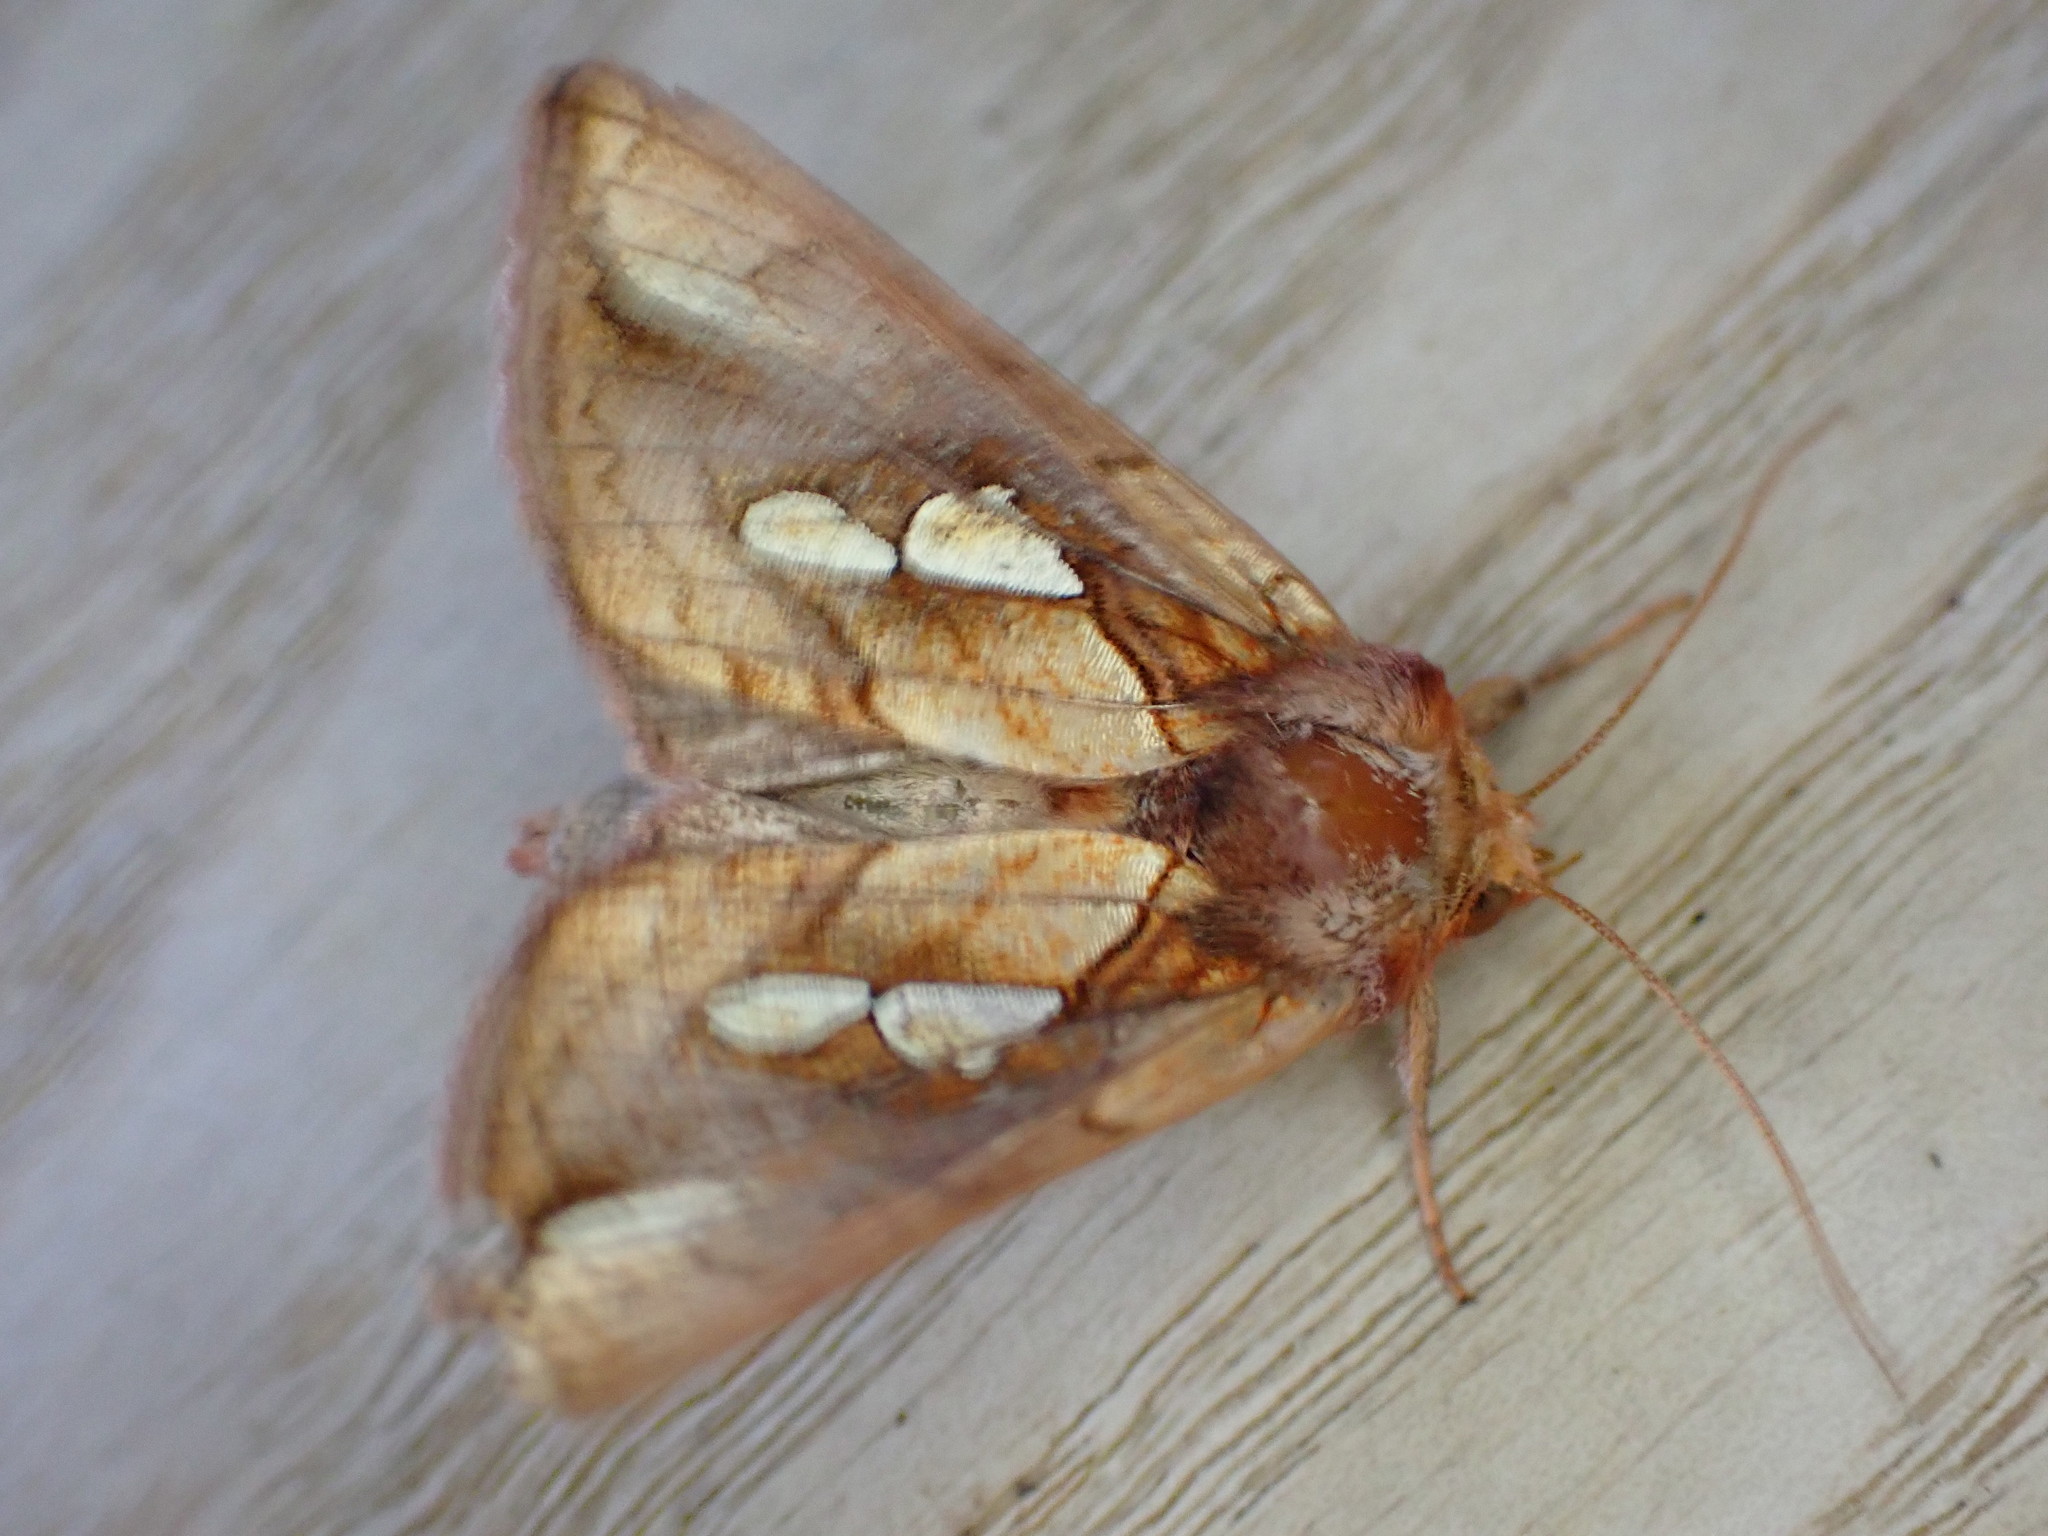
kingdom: Animalia
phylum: Arthropoda
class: Insecta
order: Lepidoptera
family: Noctuidae
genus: Plusia
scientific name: Plusia festucae
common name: Gold spot
